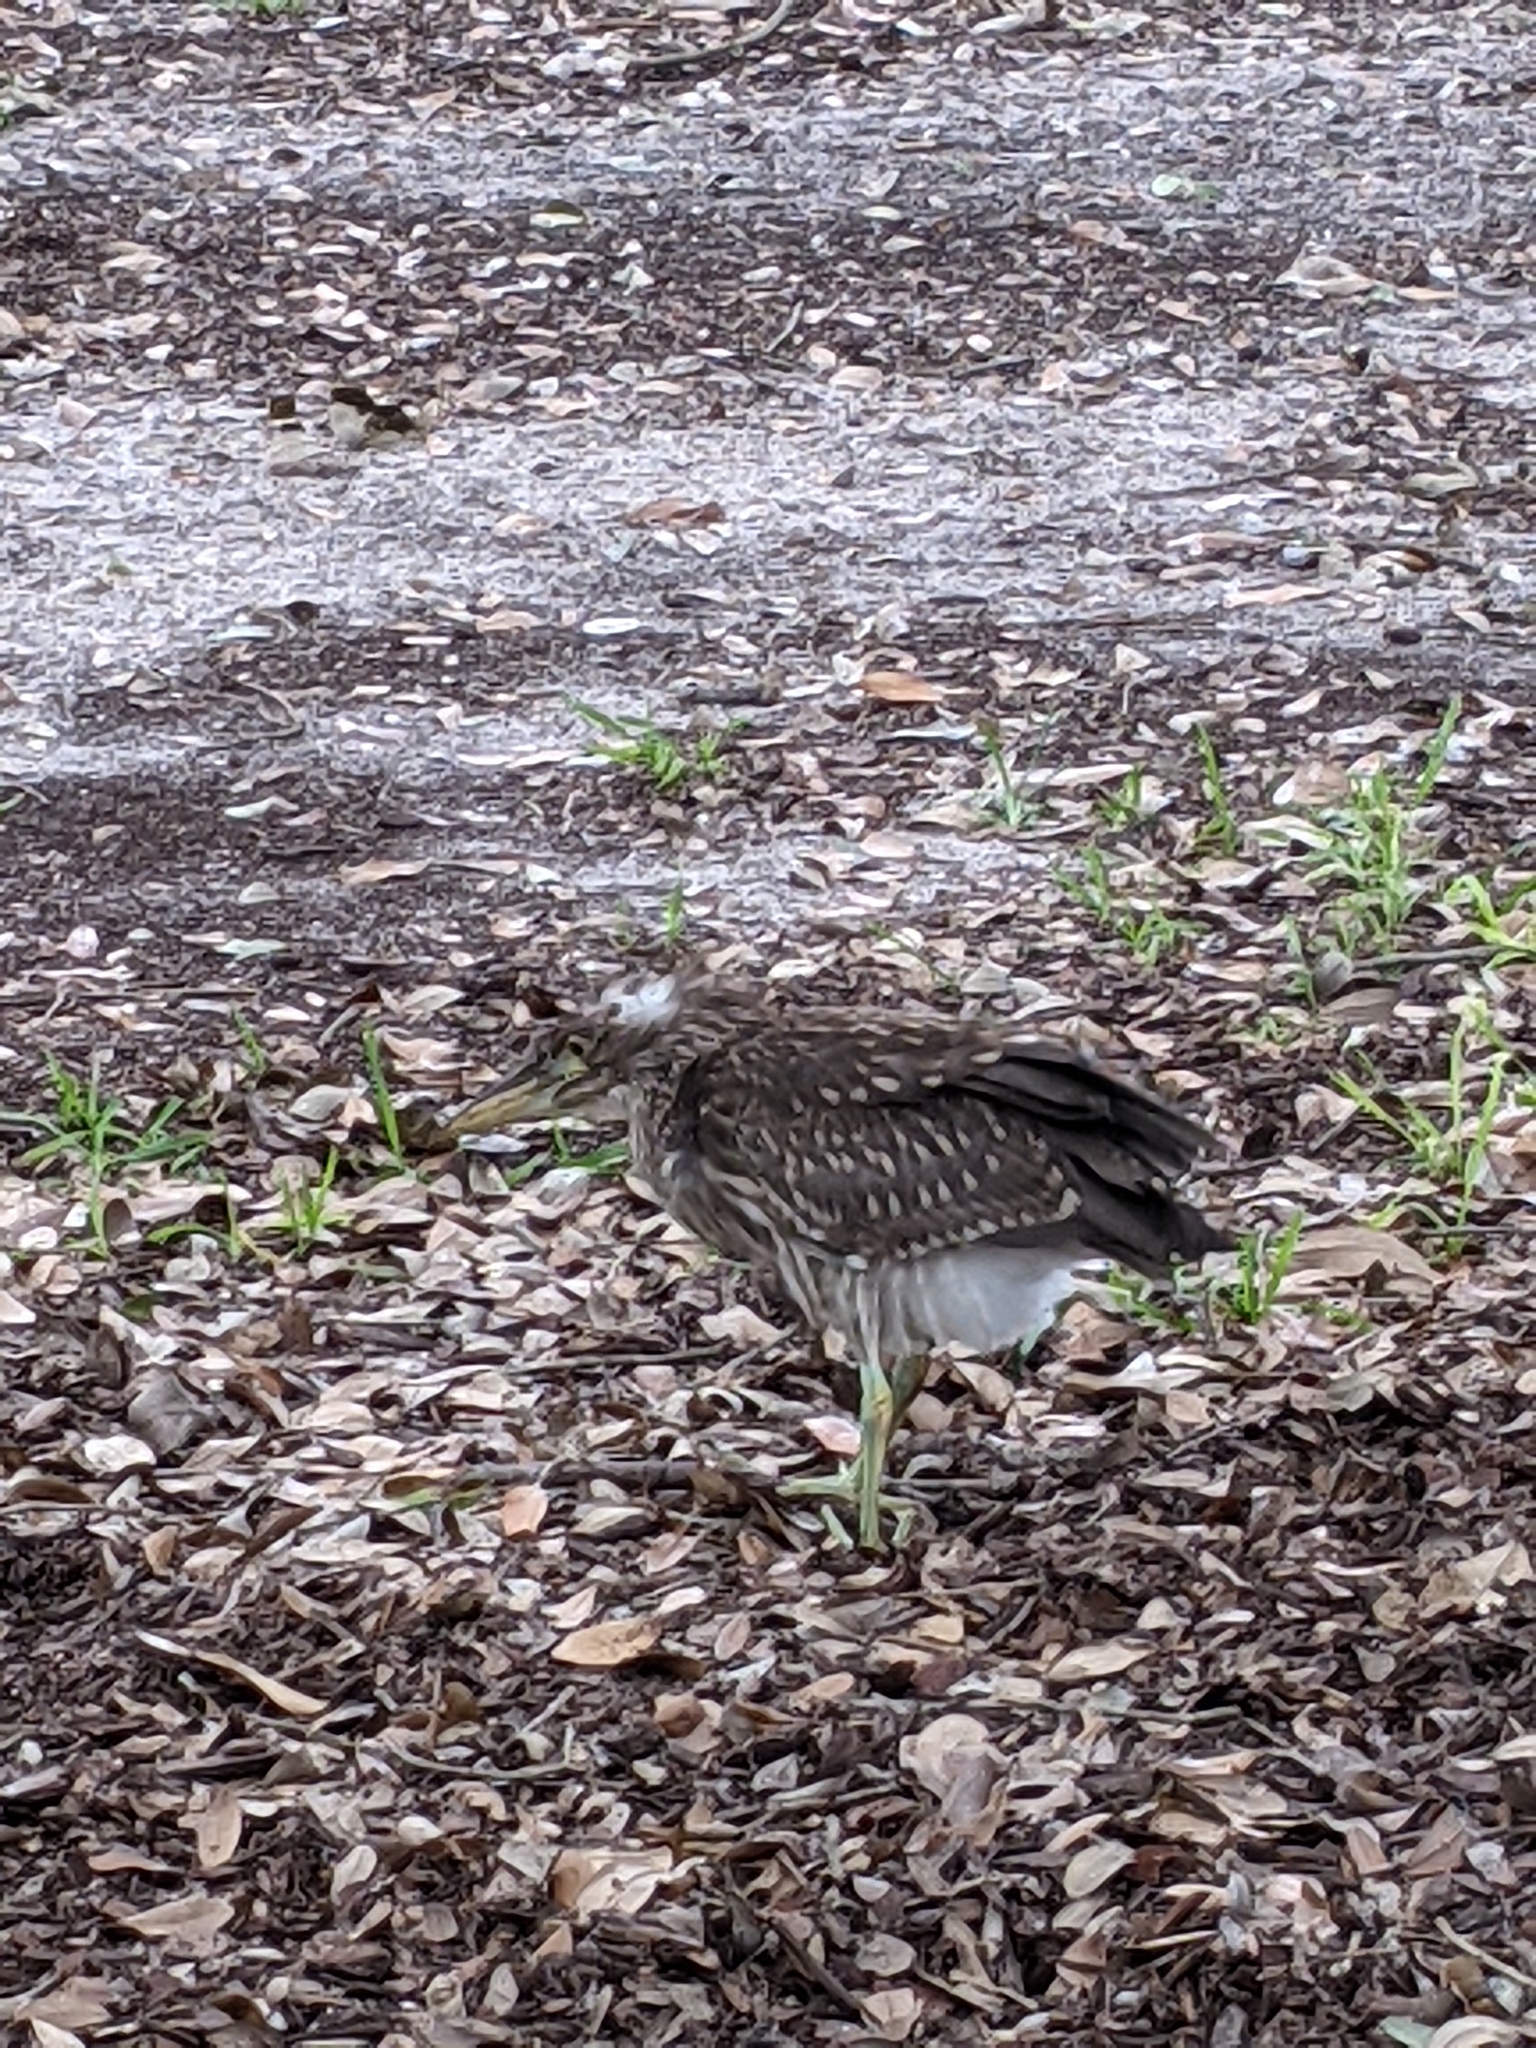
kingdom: Animalia
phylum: Chordata
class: Aves
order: Pelecaniformes
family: Ardeidae
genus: Nycticorax
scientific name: Nycticorax nycticorax
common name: Black-crowned night heron
